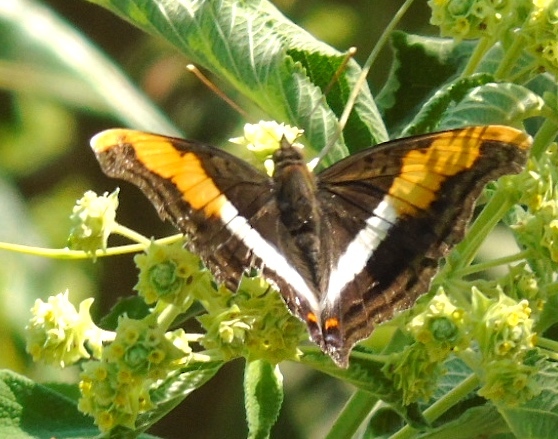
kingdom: Animalia
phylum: Arthropoda
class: Insecta
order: Lepidoptera
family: Nymphalidae
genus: Doxocopa
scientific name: Doxocopa laure
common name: Silver emperor
